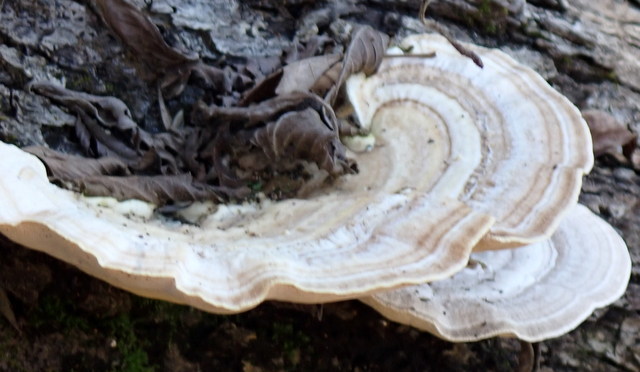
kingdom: Fungi
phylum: Basidiomycota
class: Agaricomycetes
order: Polyporales
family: Polyporaceae
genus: Trametes
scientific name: Trametes lactinea
